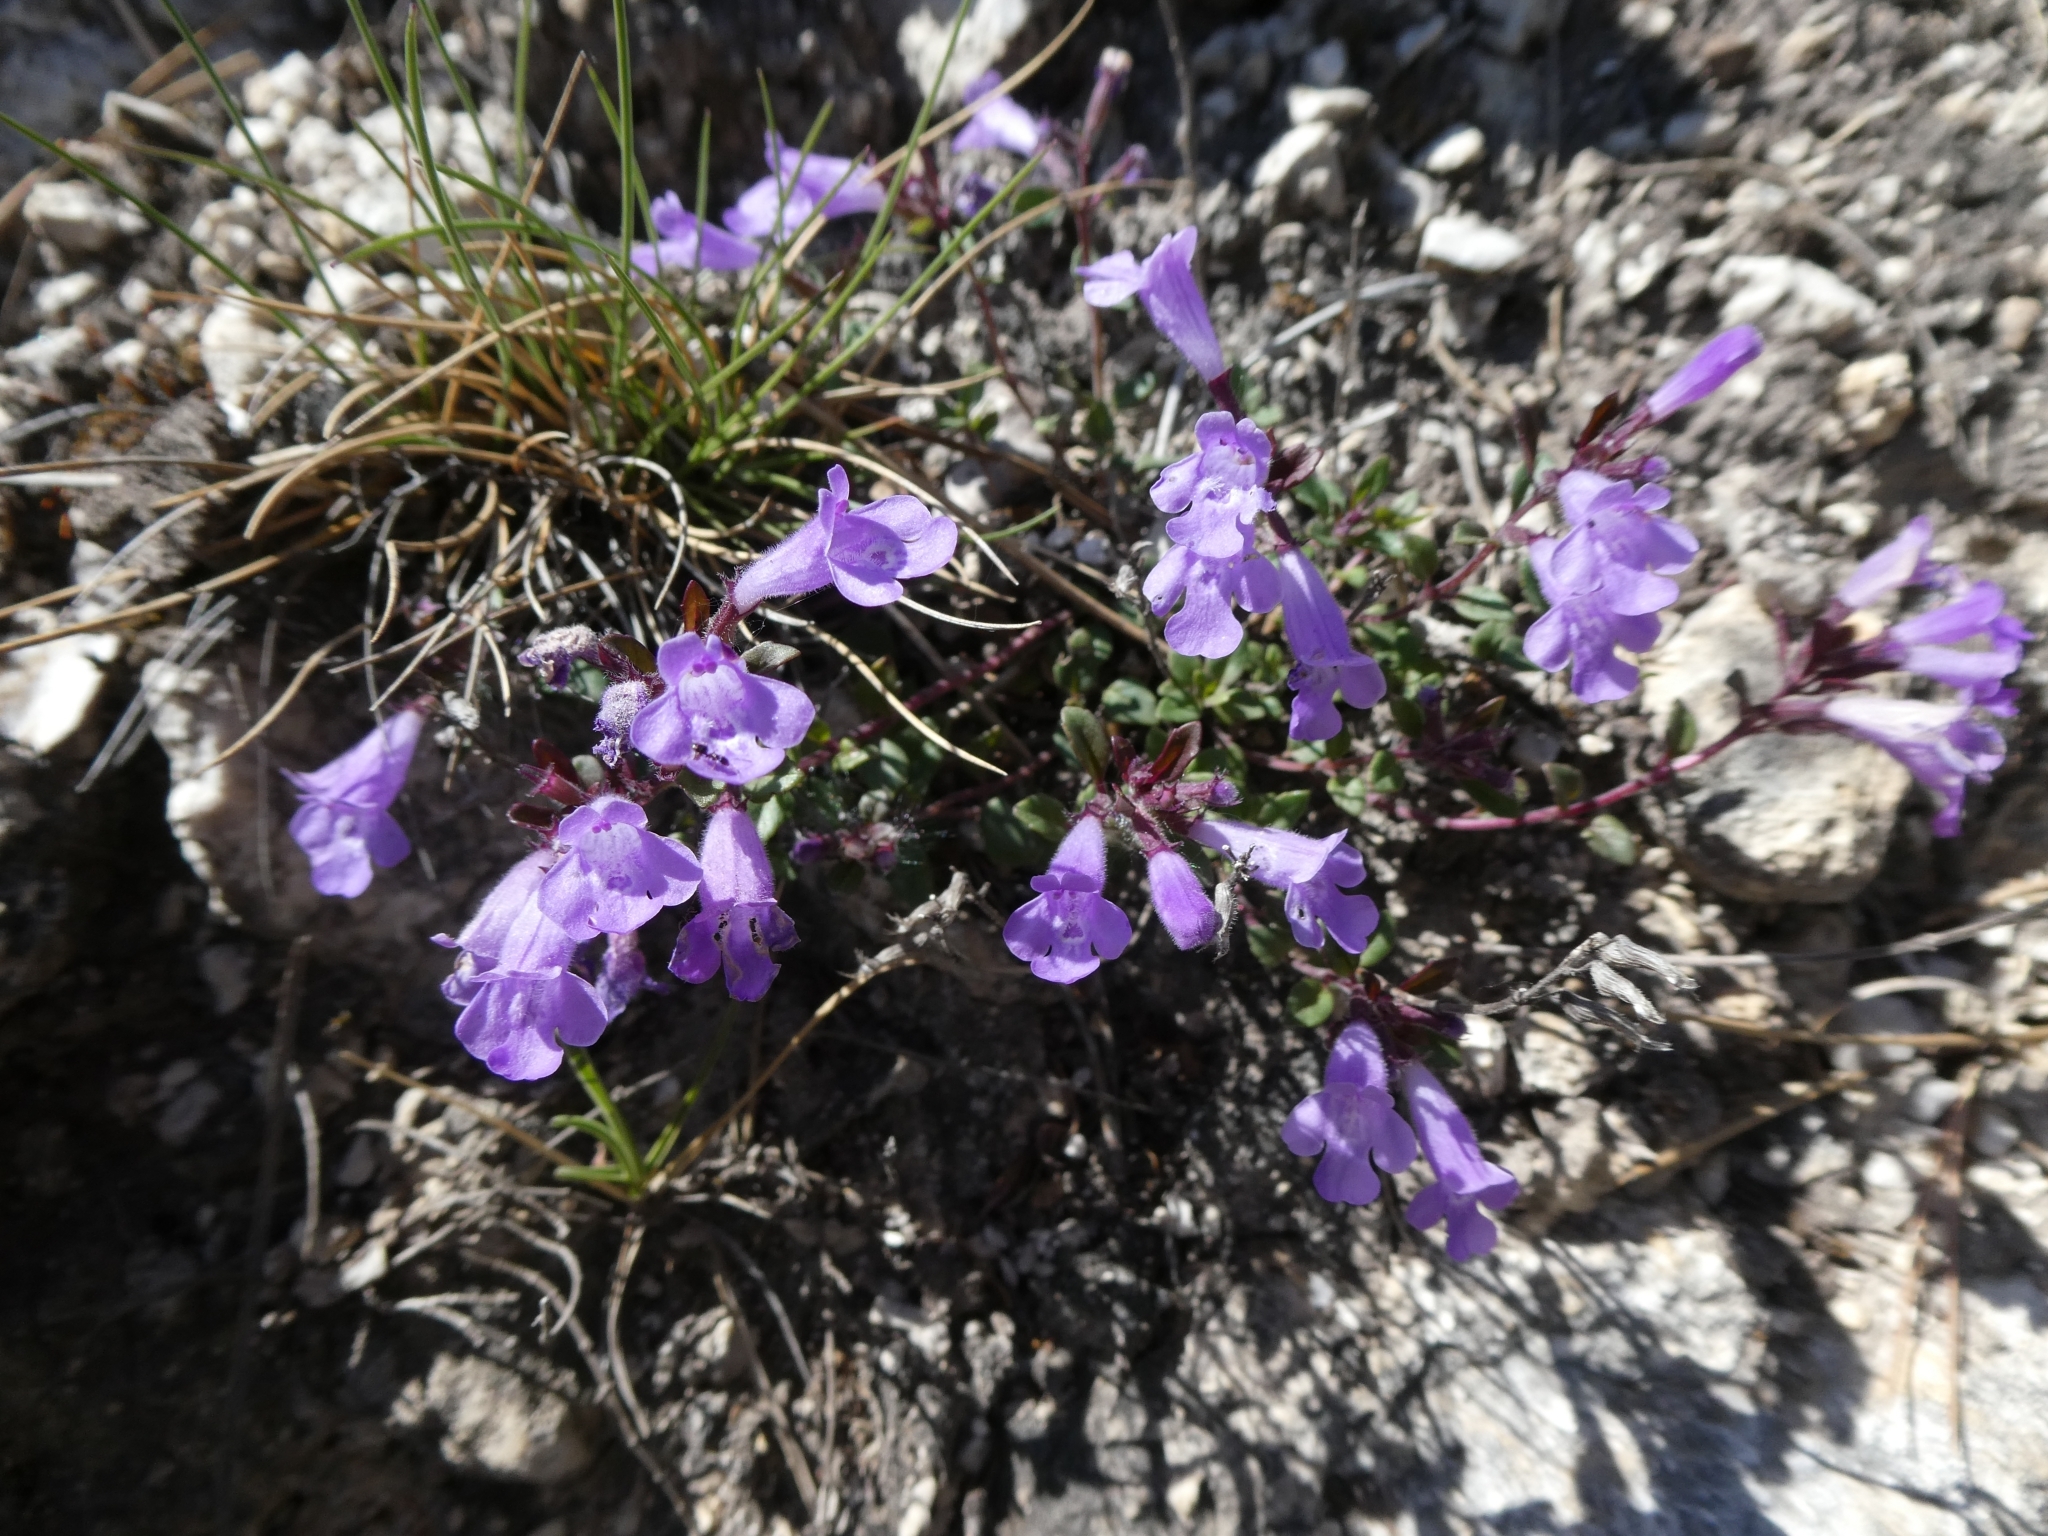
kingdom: Plantae
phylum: Tracheophyta
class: Magnoliopsida
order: Lamiales
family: Lamiaceae
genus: Clinopodium
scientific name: Clinopodium alpinum
